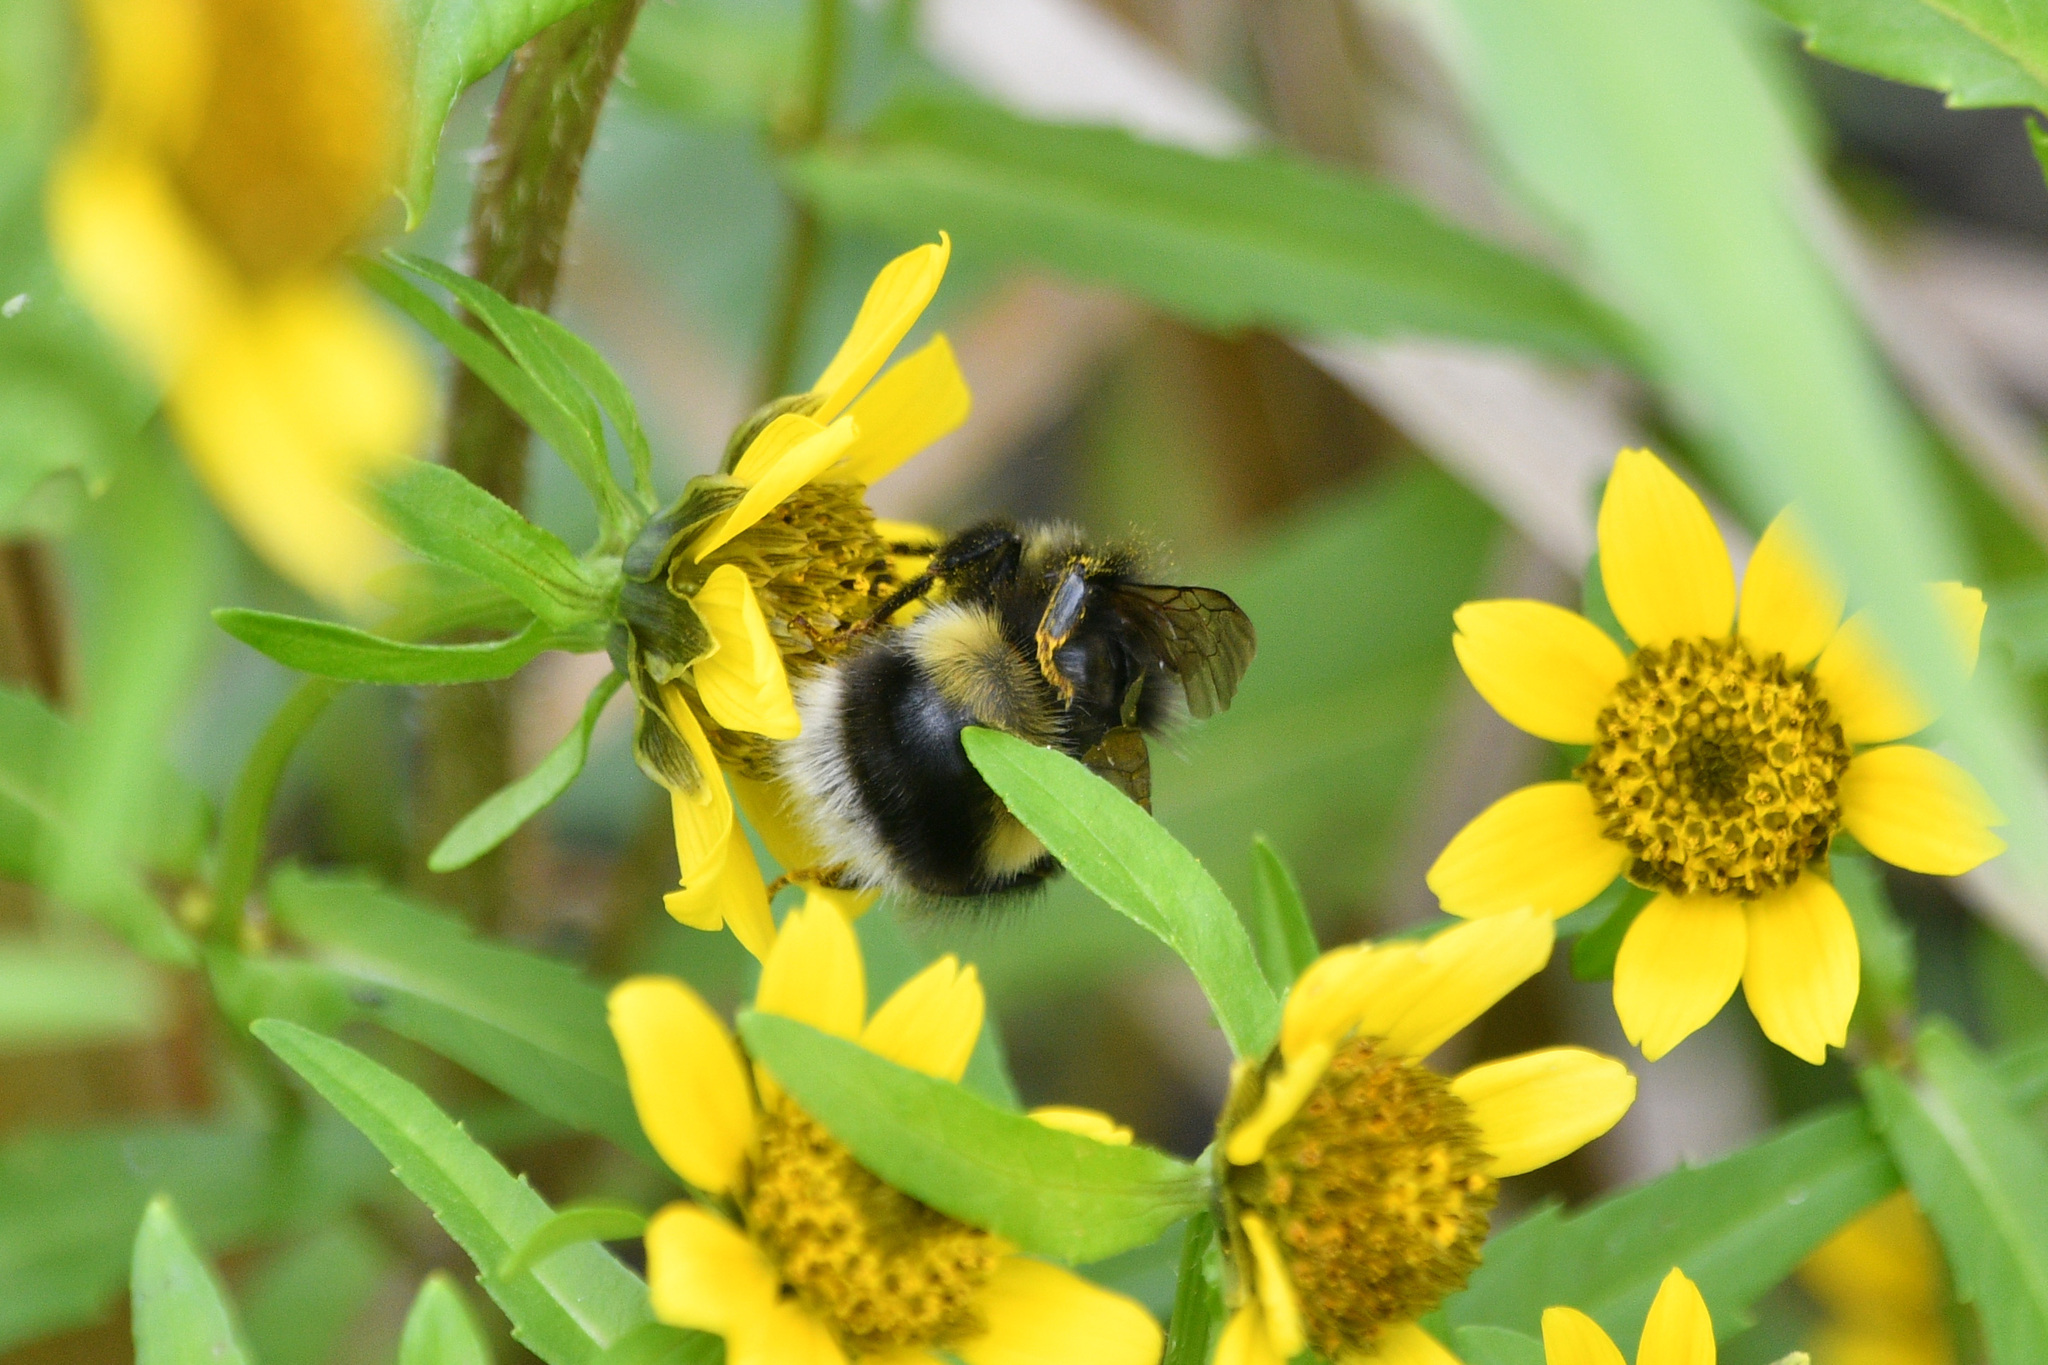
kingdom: Animalia
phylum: Arthropoda
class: Insecta
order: Hymenoptera
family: Apidae
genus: Bombus
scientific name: Bombus cryptarum
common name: Cryptic bumblebee
